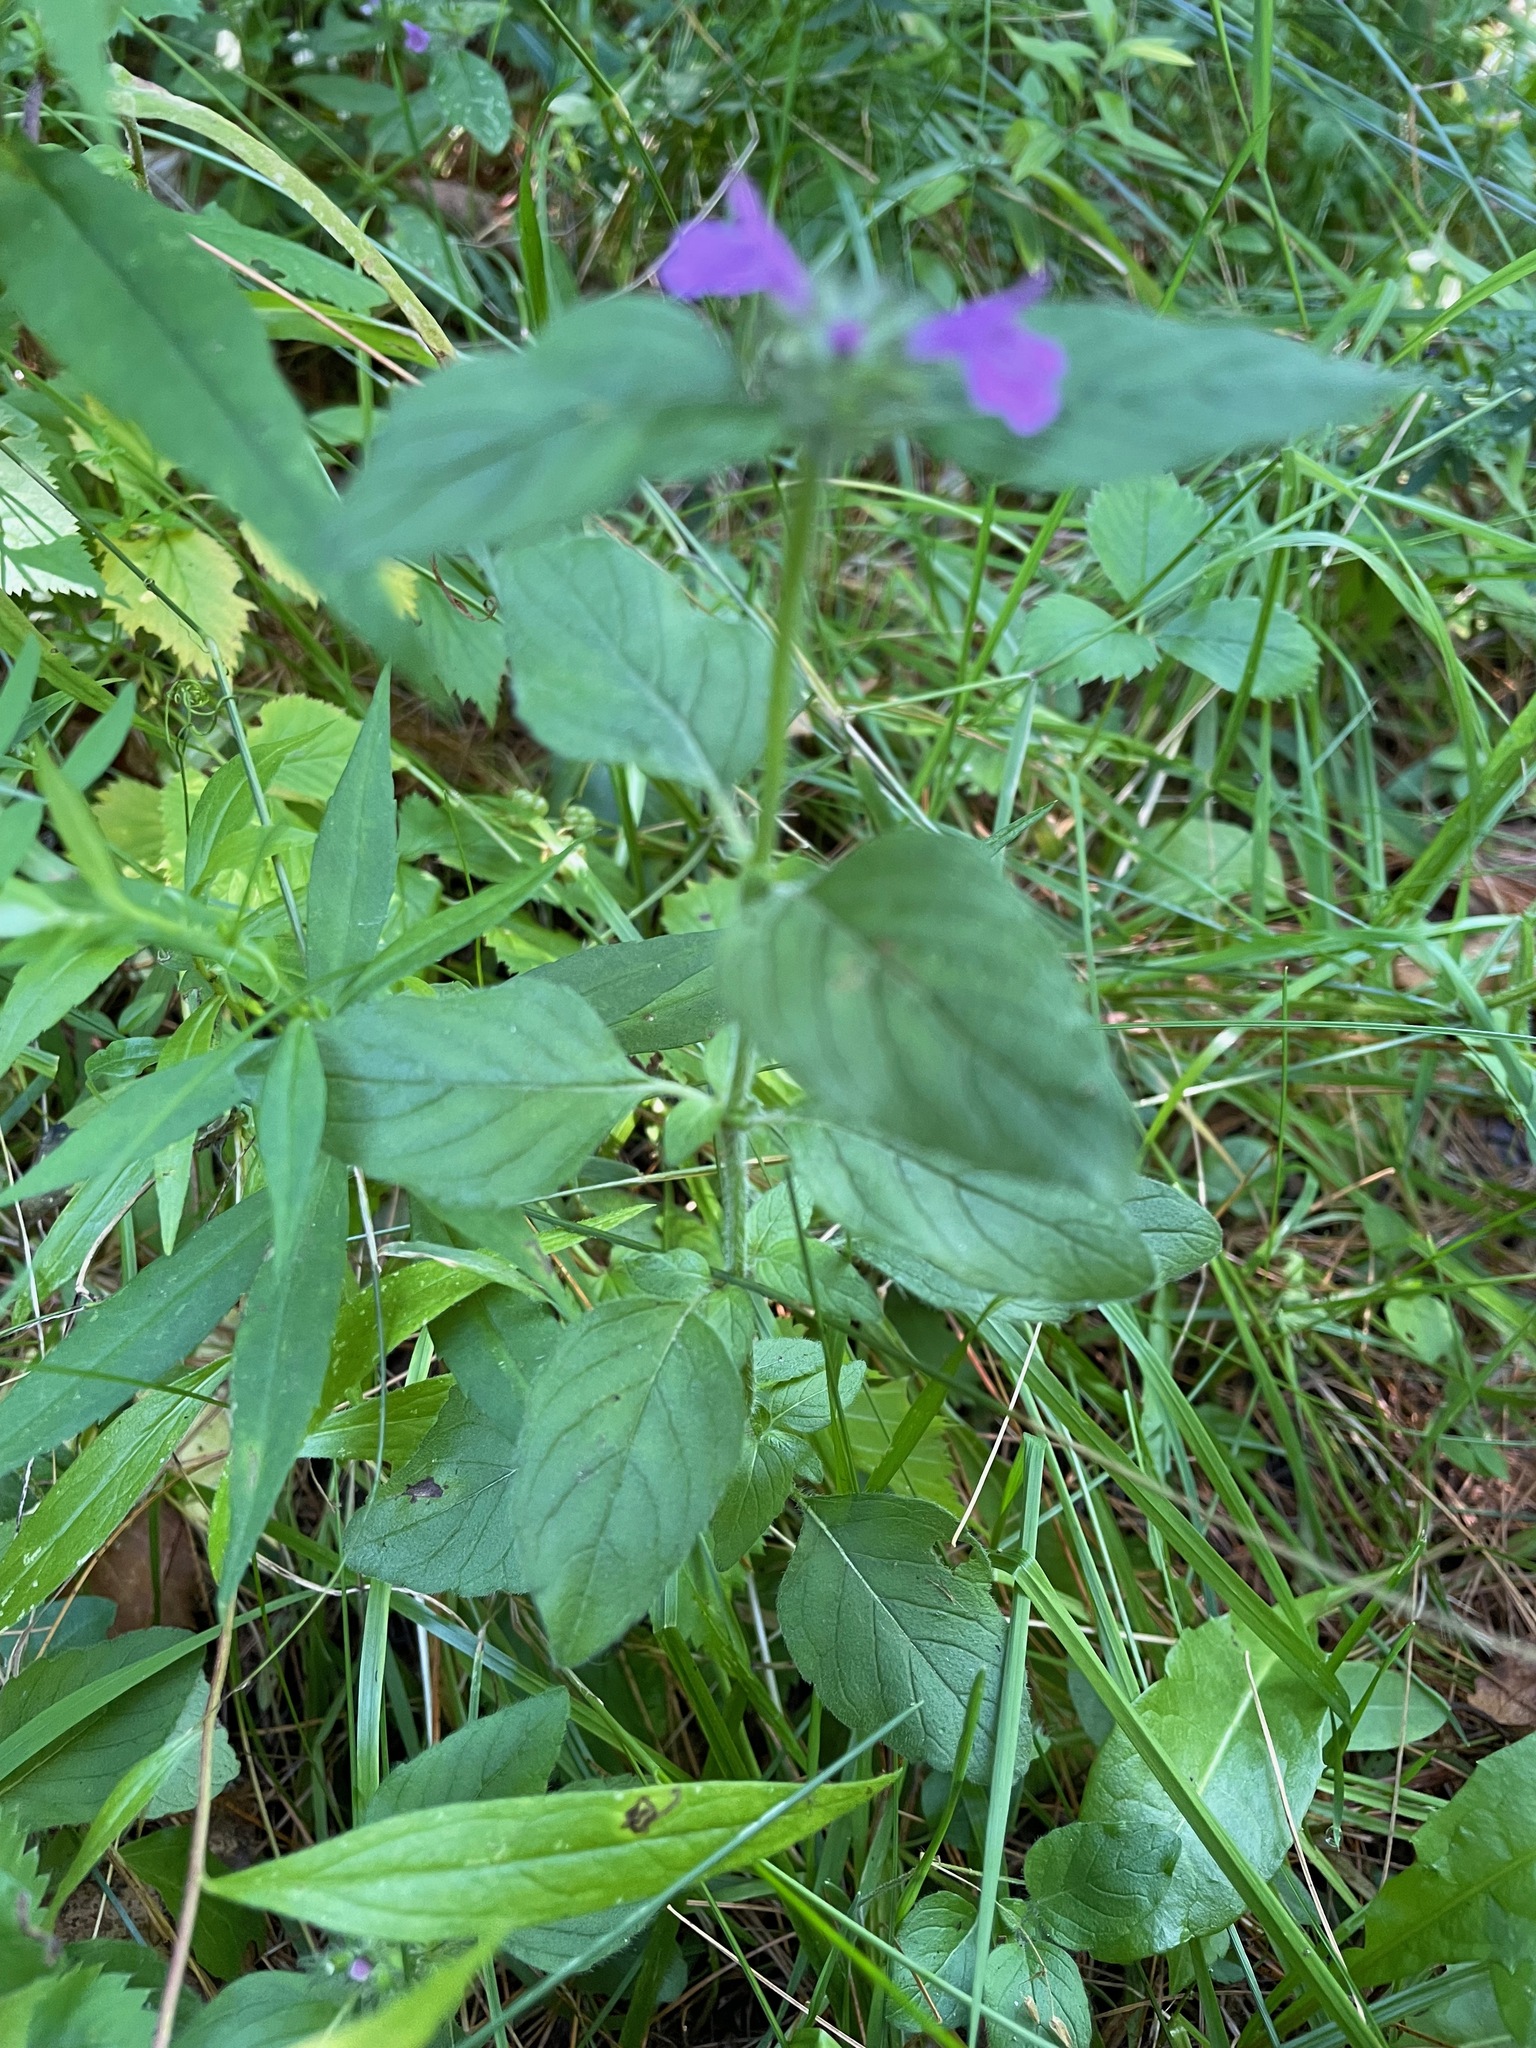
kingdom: Plantae
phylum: Tracheophyta
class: Magnoliopsida
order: Lamiales
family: Lamiaceae
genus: Clinopodium
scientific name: Clinopodium vulgare
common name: Wild basil
